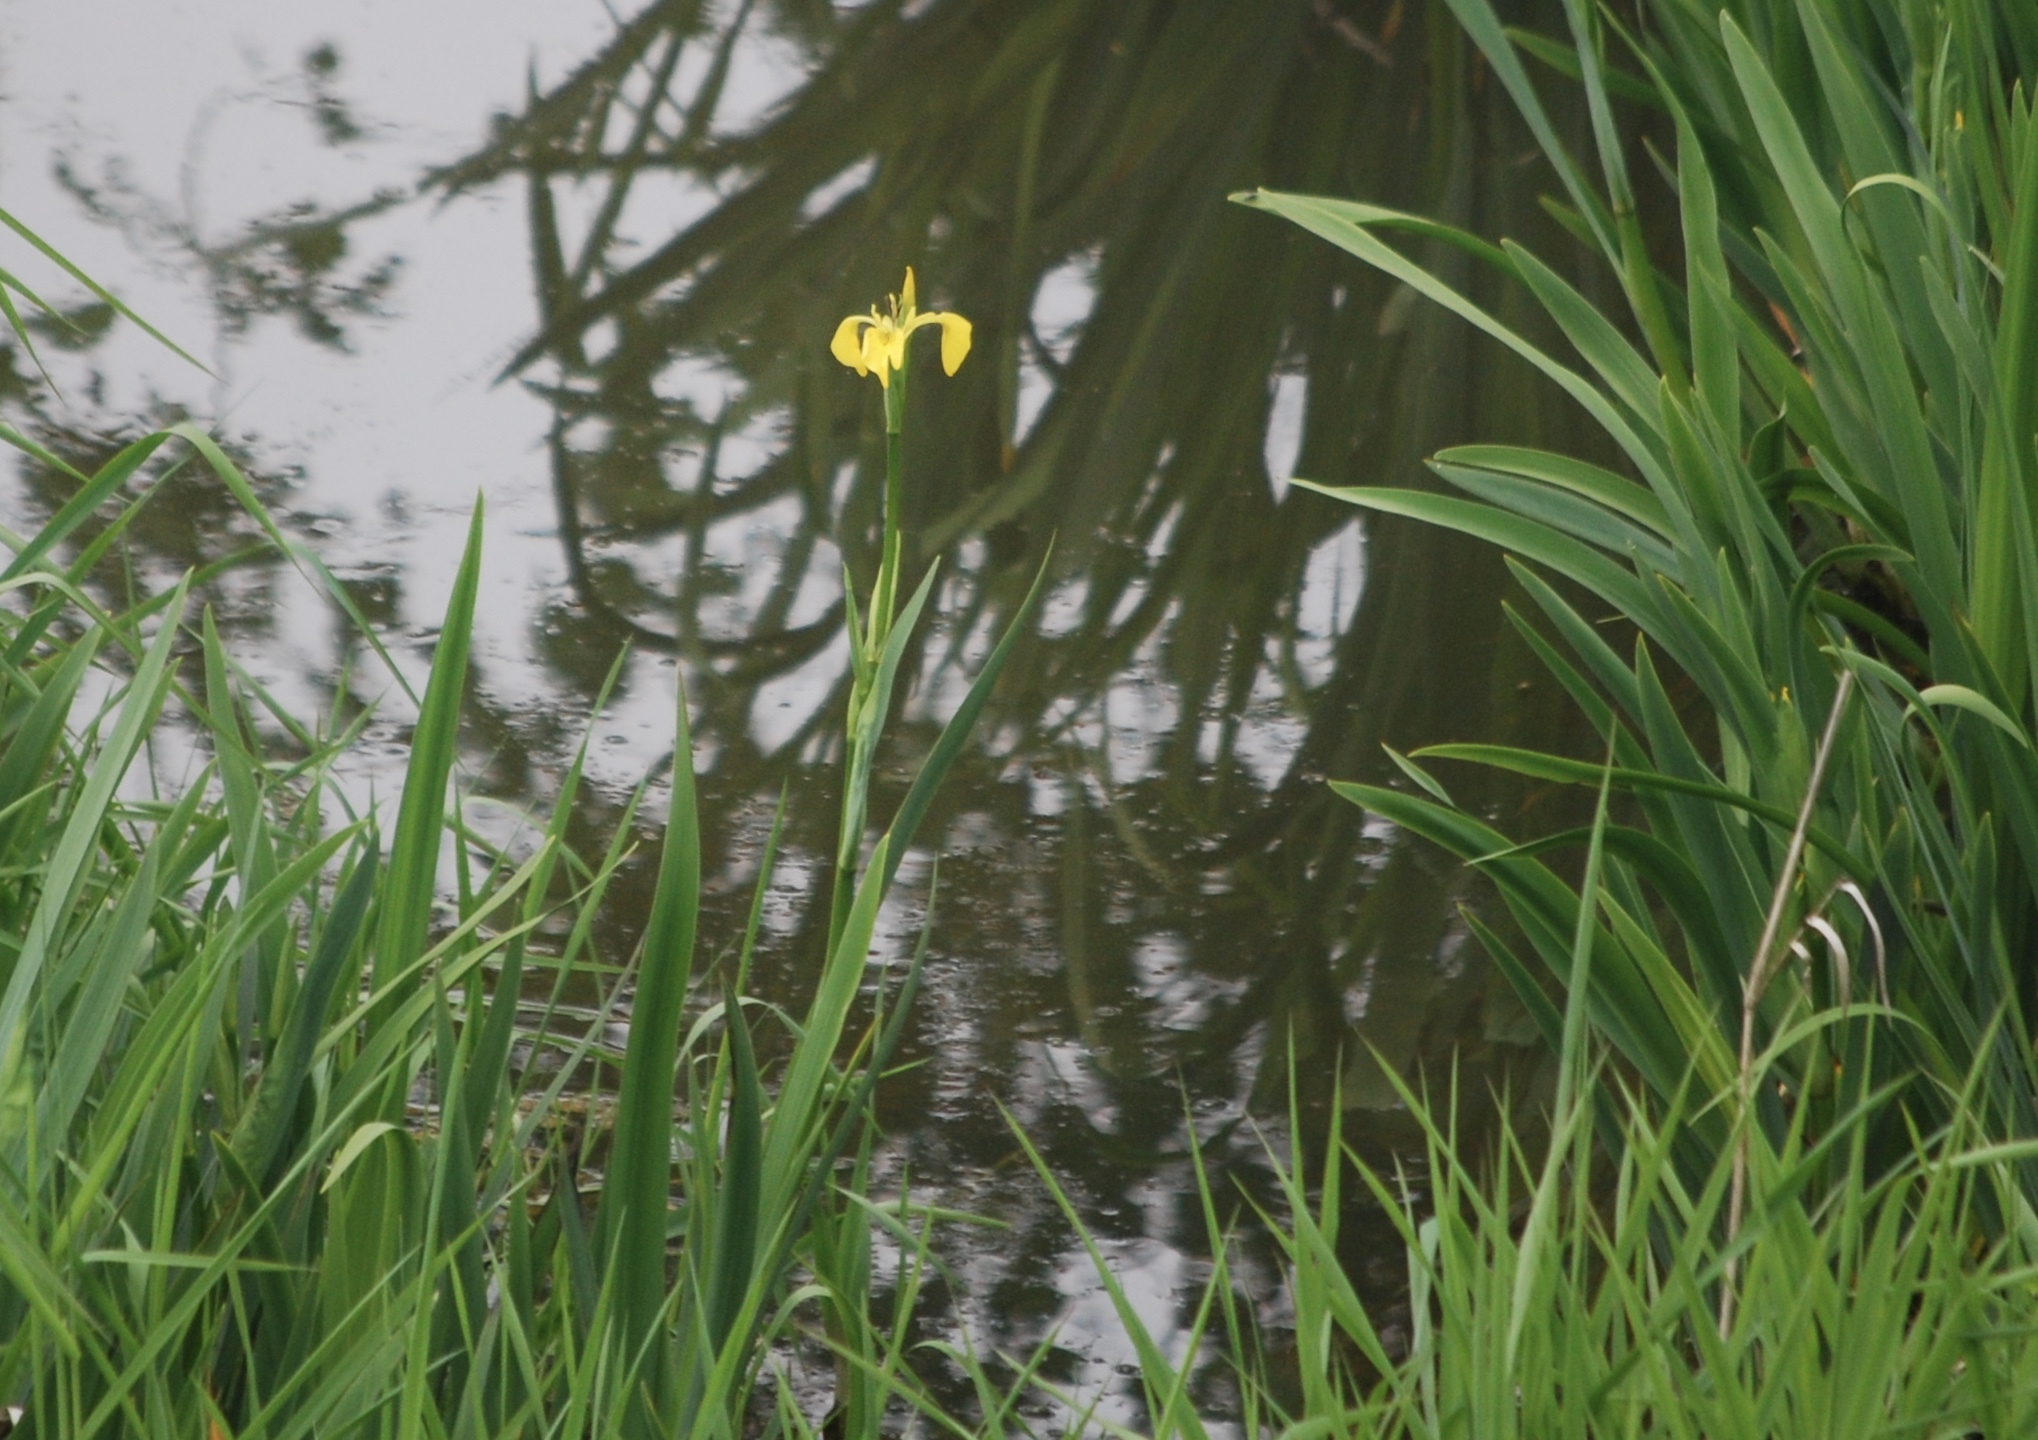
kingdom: Plantae
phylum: Tracheophyta
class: Liliopsida
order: Asparagales
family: Iridaceae
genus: Iris
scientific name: Iris pseudacorus
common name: Yellow flag
